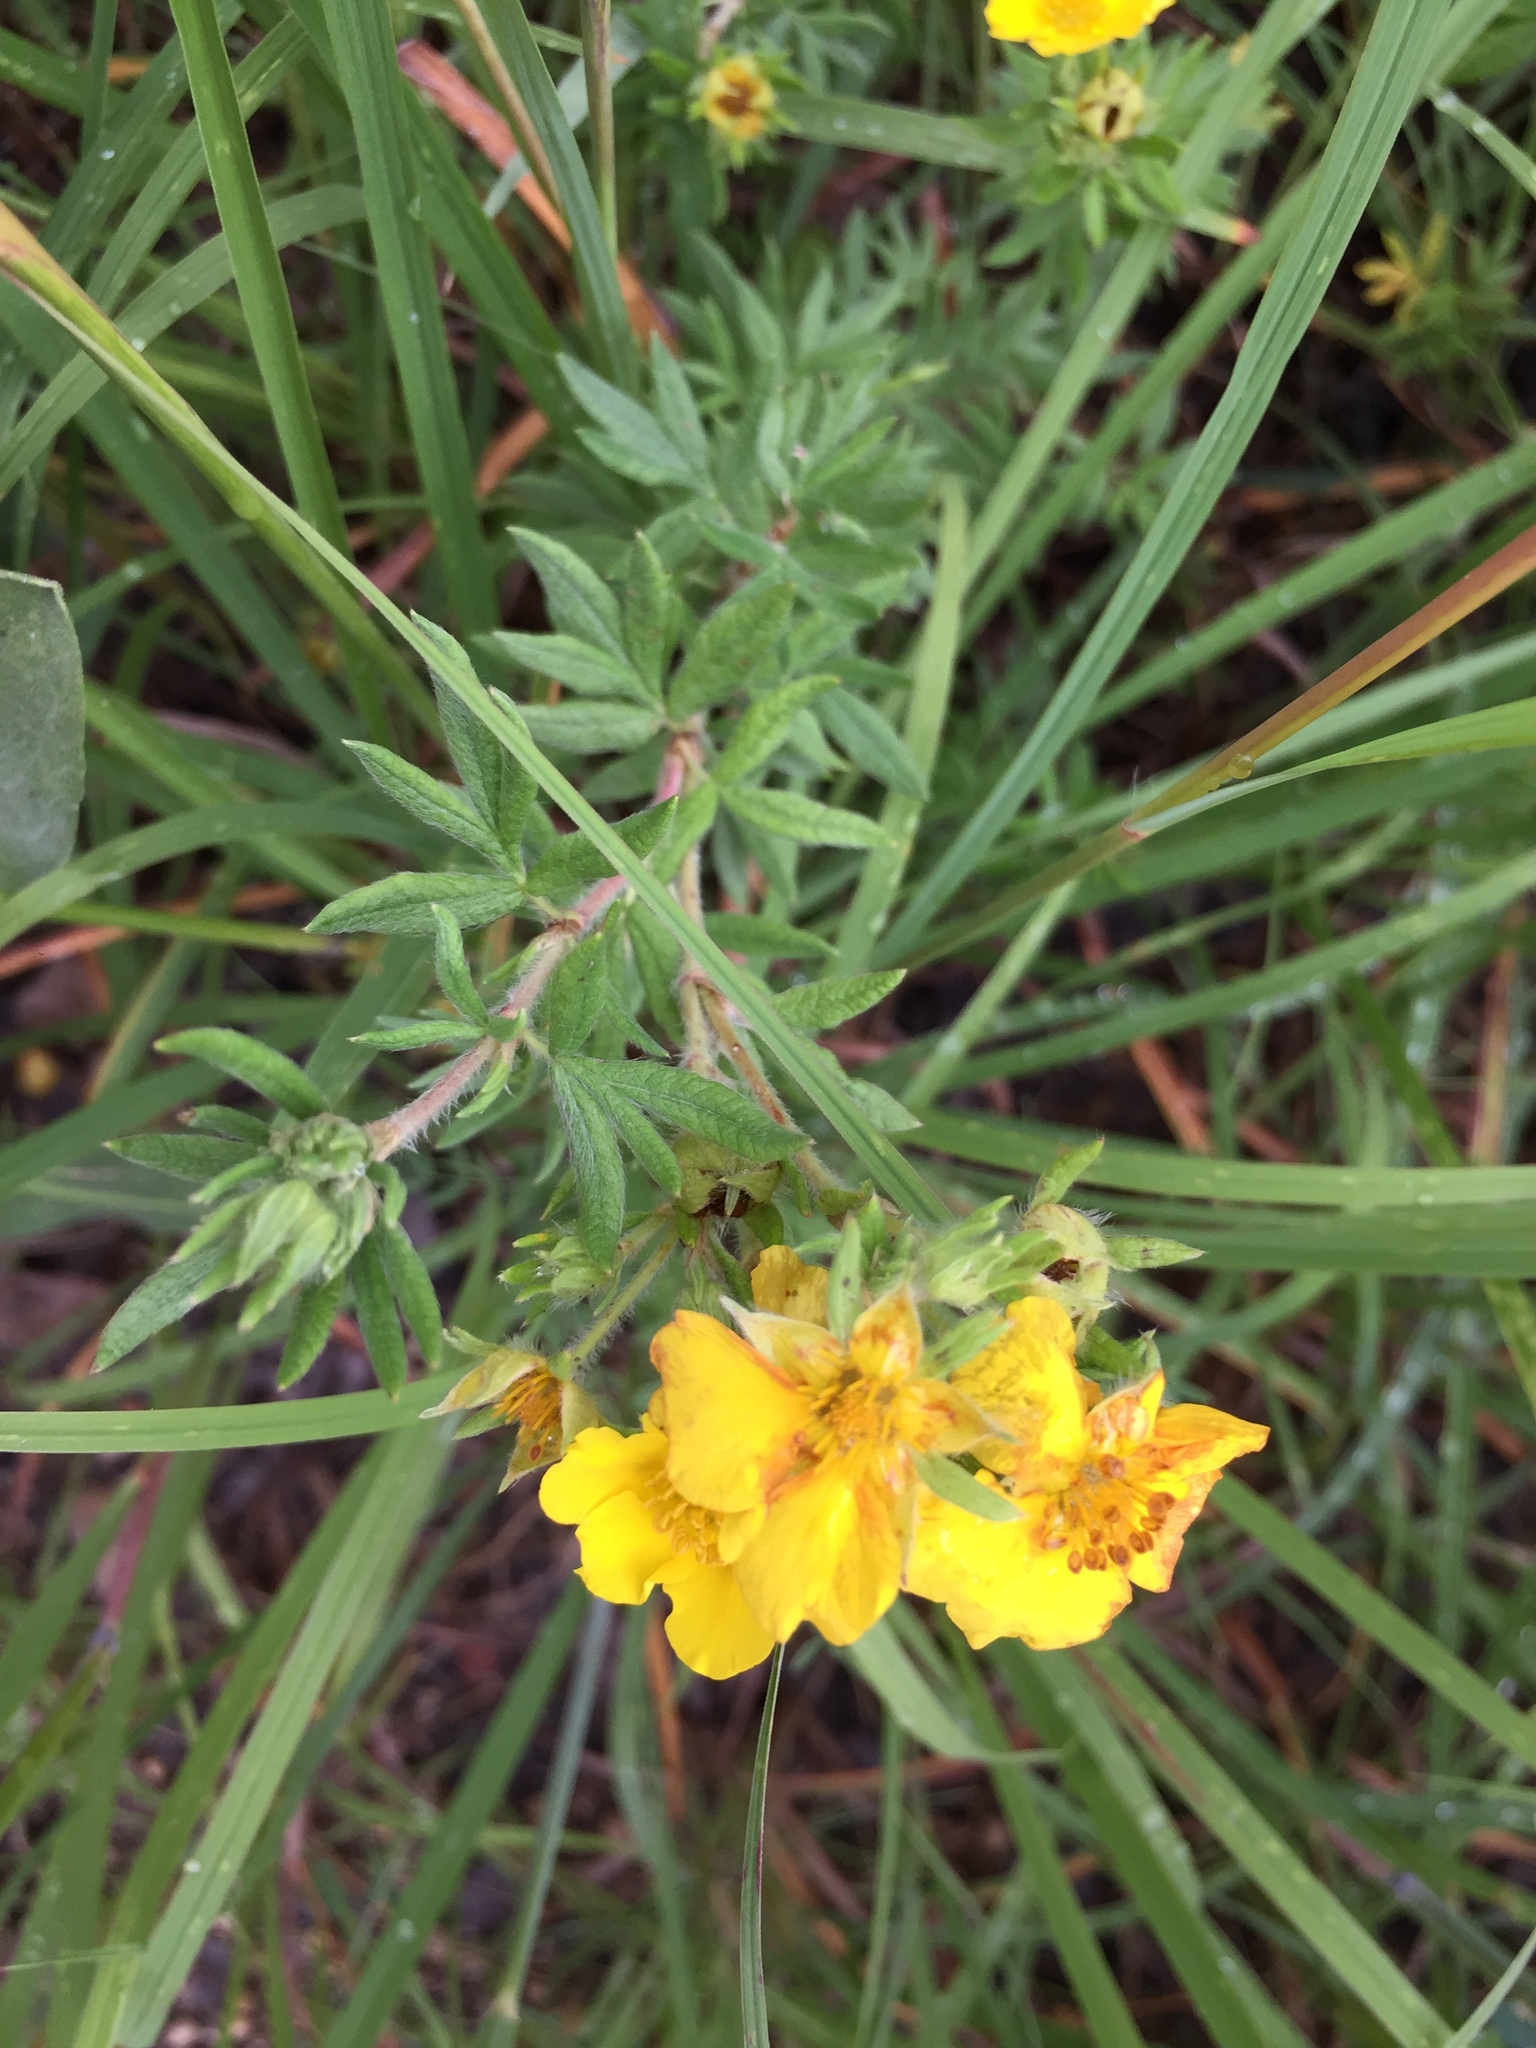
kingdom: Plantae
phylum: Tracheophyta
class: Magnoliopsida
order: Rosales
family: Rosaceae
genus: Dasiphora
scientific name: Dasiphora fruticosa
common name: Shrubby cinquefoil
